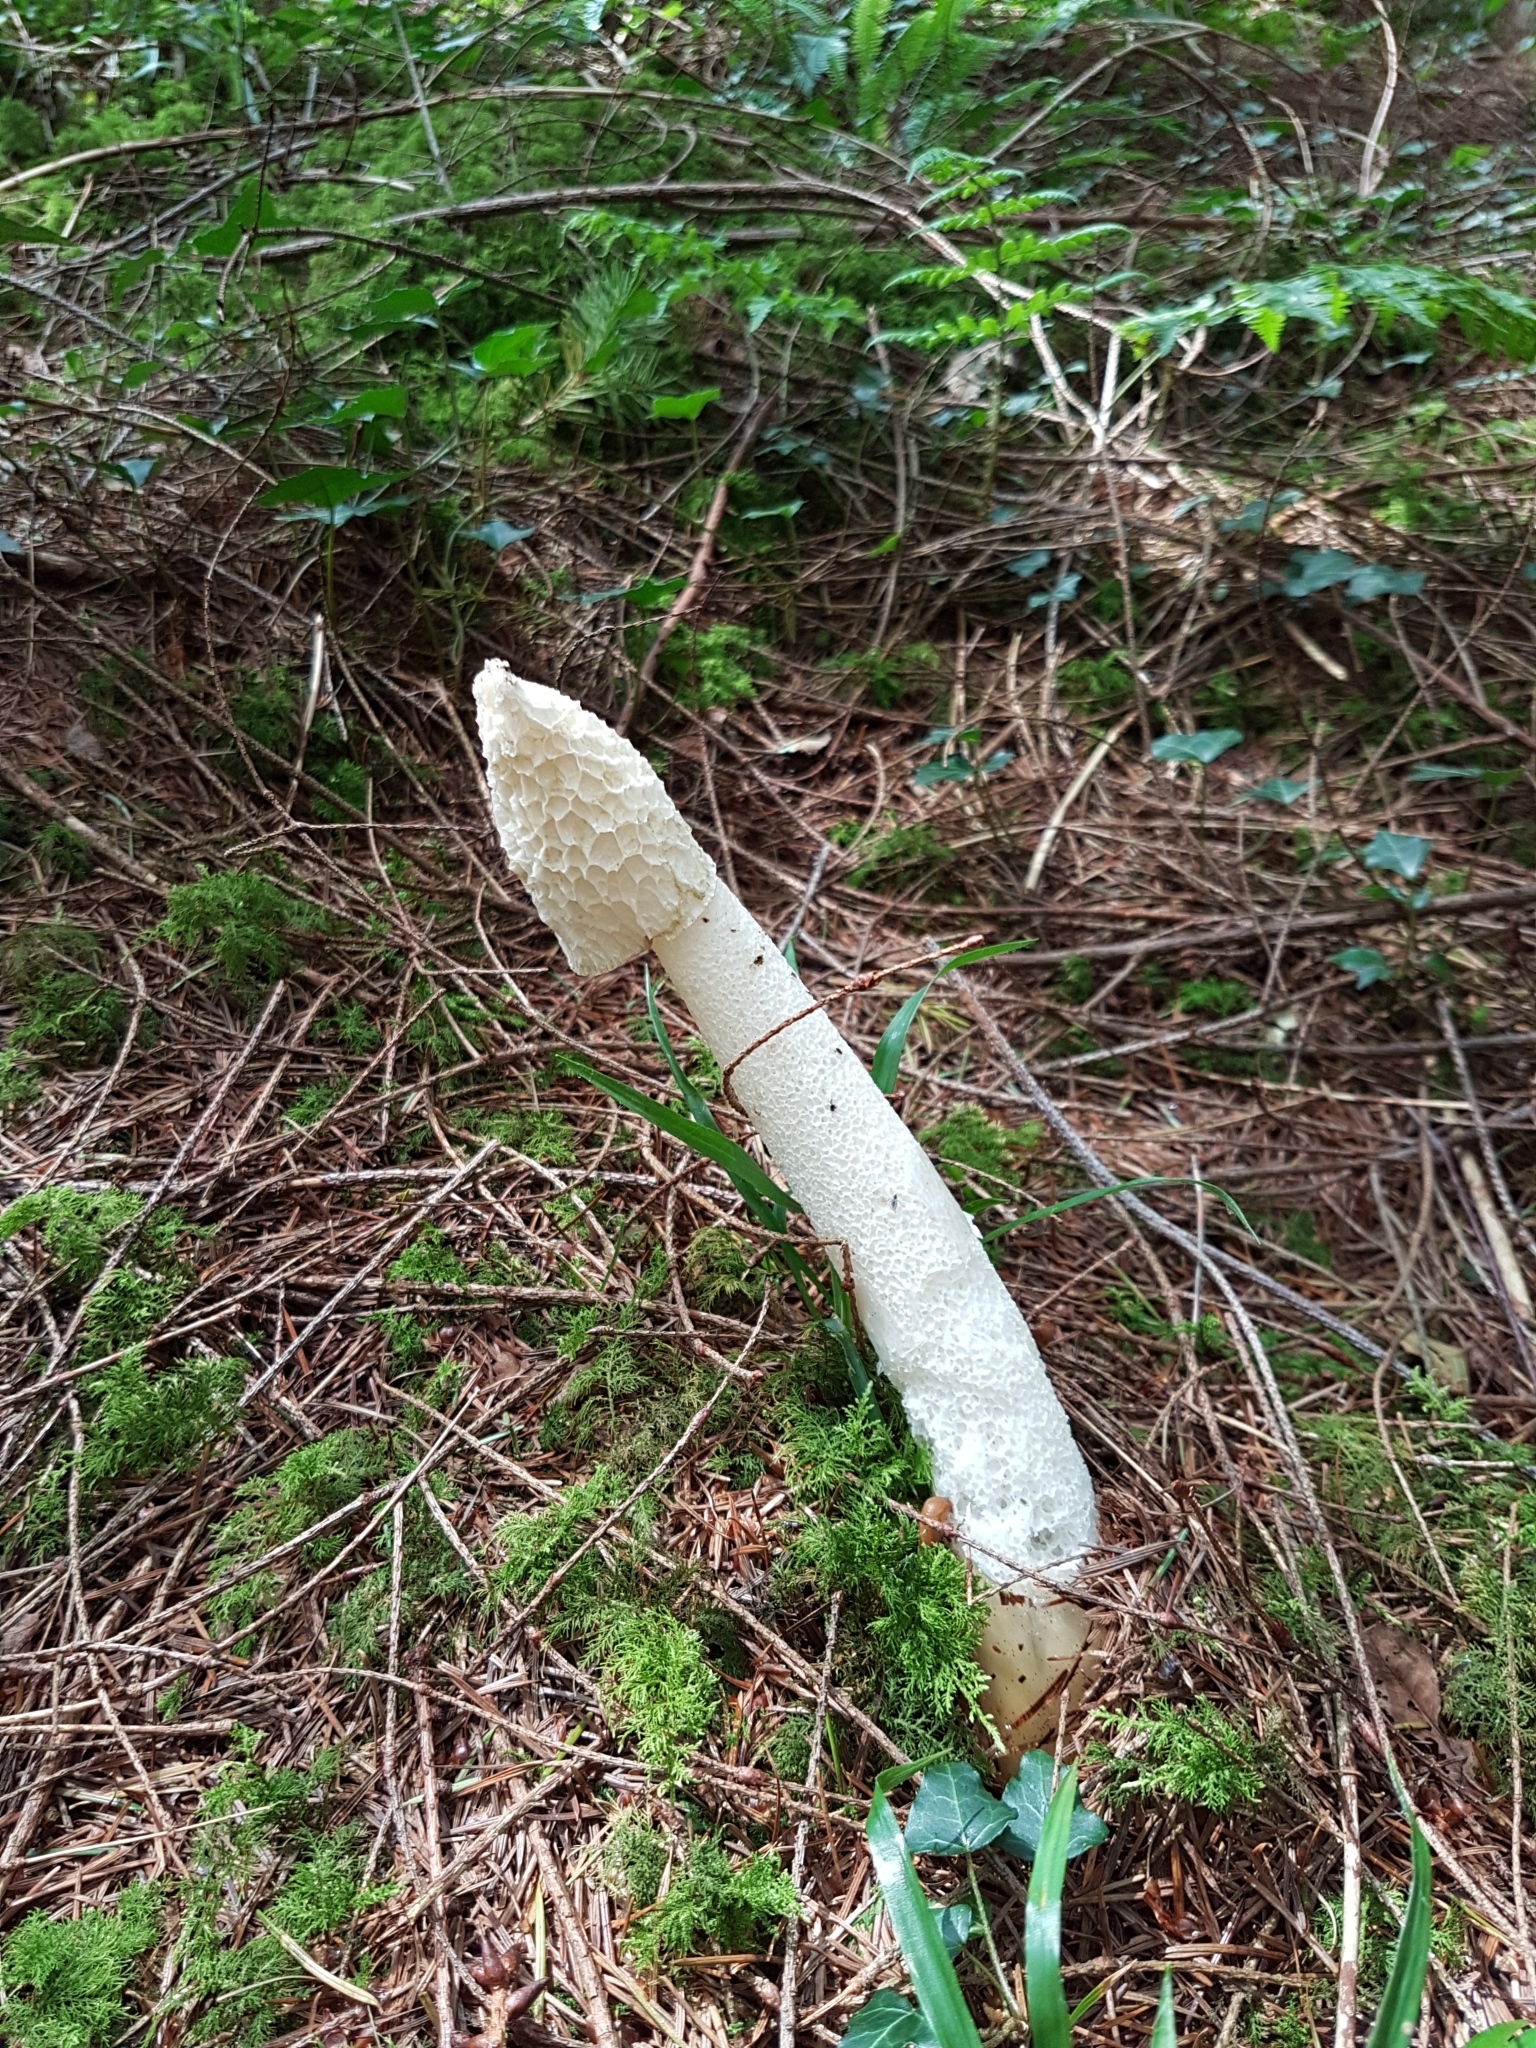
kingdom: Fungi
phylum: Basidiomycota
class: Agaricomycetes
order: Phallales
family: Phallaceae
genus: Phallus
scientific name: Phallus impudicus
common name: Common stinkhorn
